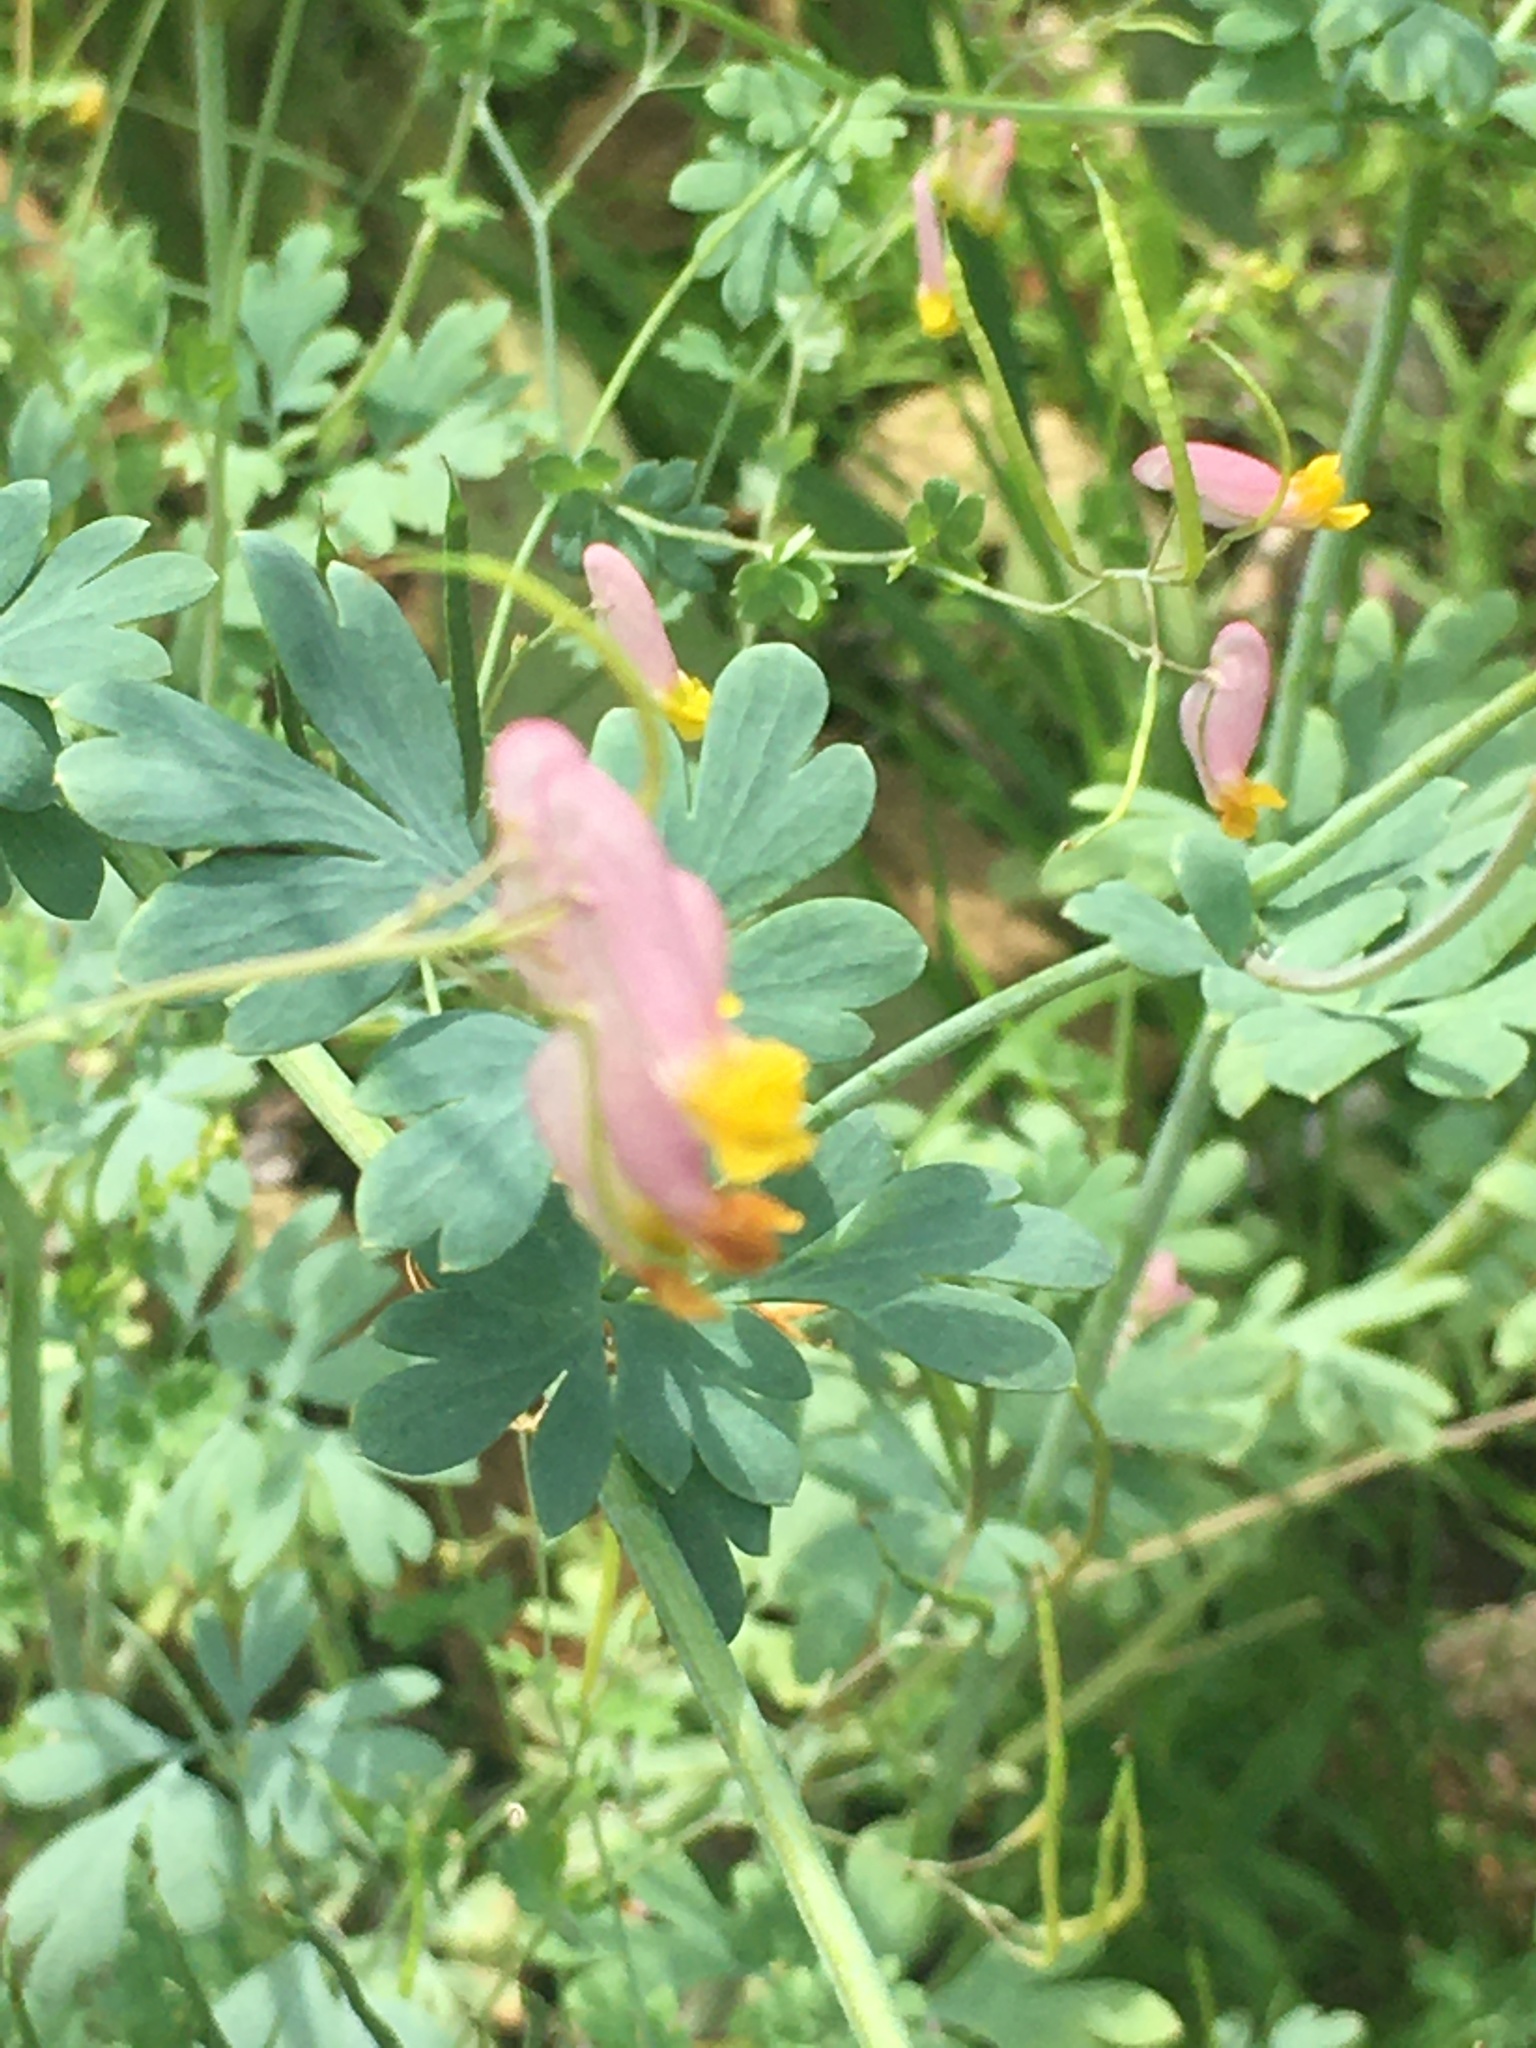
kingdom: Plantae
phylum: Tracheophyta
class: Magnoliopsida
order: Ranunculales
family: Papaveraceae
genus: Capnoides
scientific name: Capnoides sempervirens
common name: Rock harlequin
